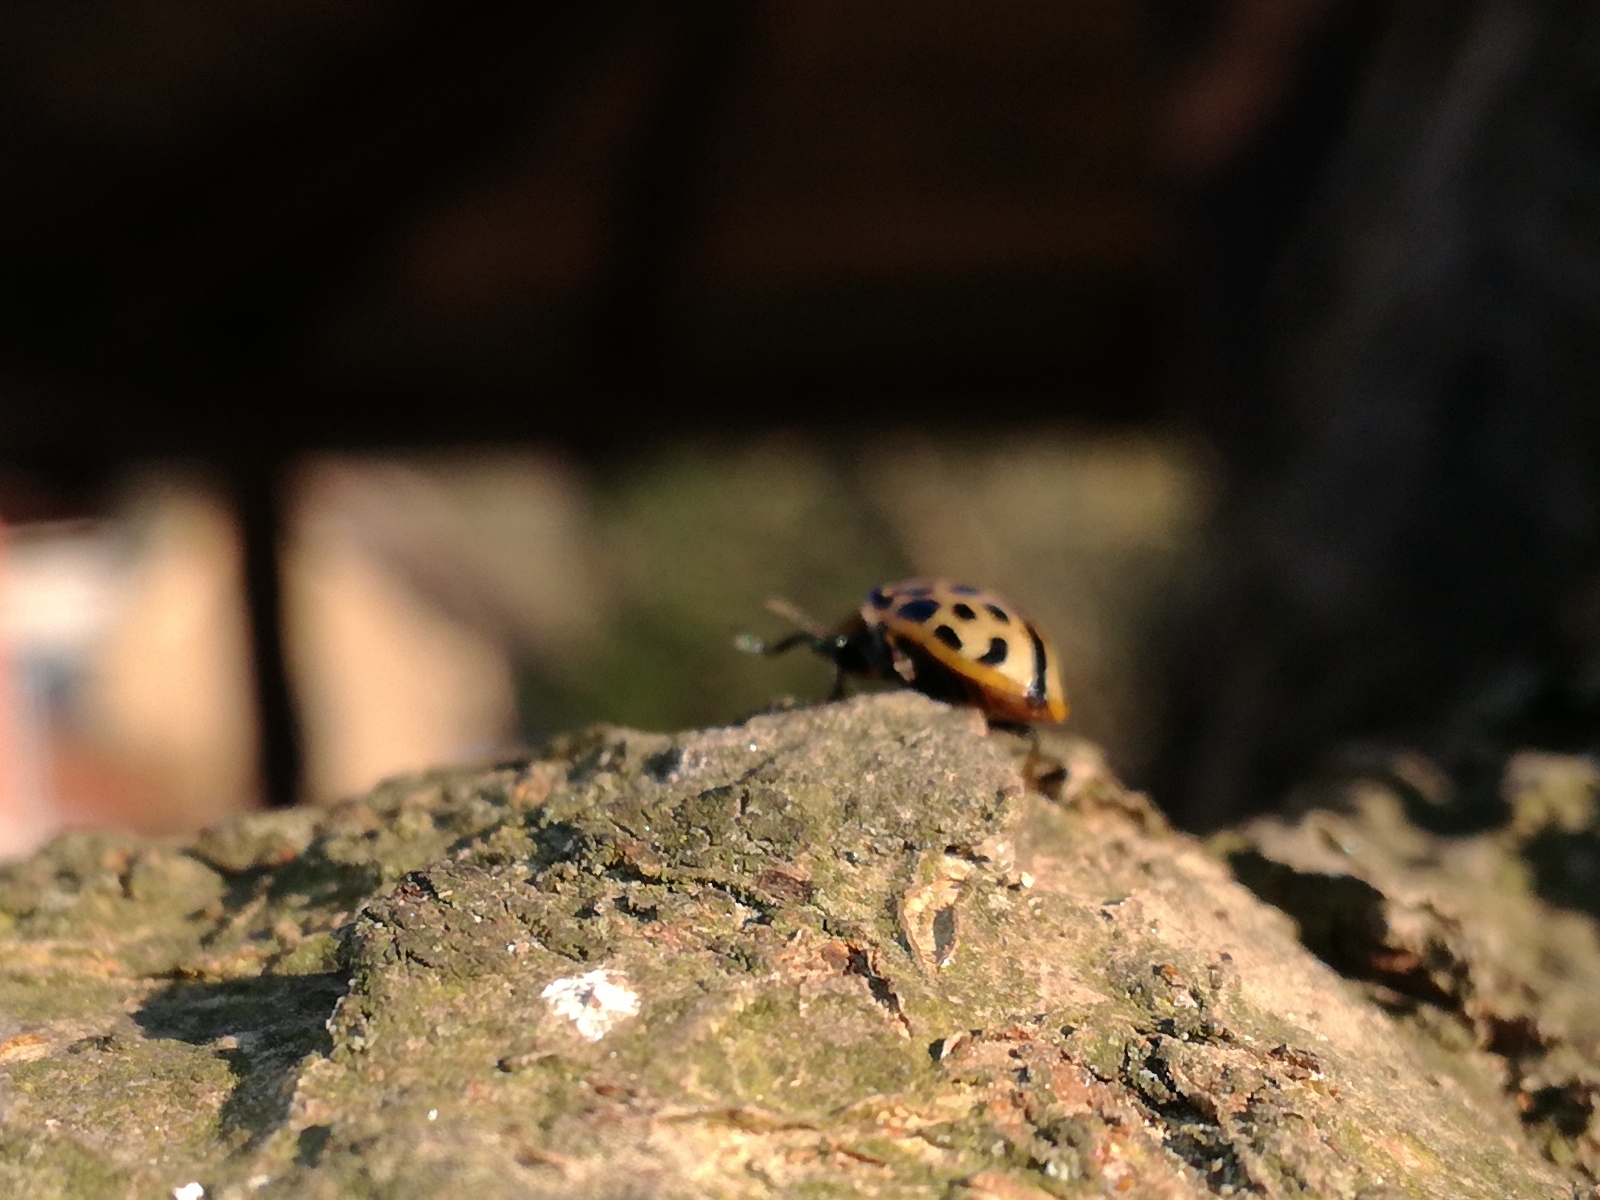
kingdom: Animalia
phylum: Arthropoda
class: Insecta
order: Coleoptera
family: Chrysomelidae
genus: Chrysomela
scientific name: Chrysomela vigintipunctata
